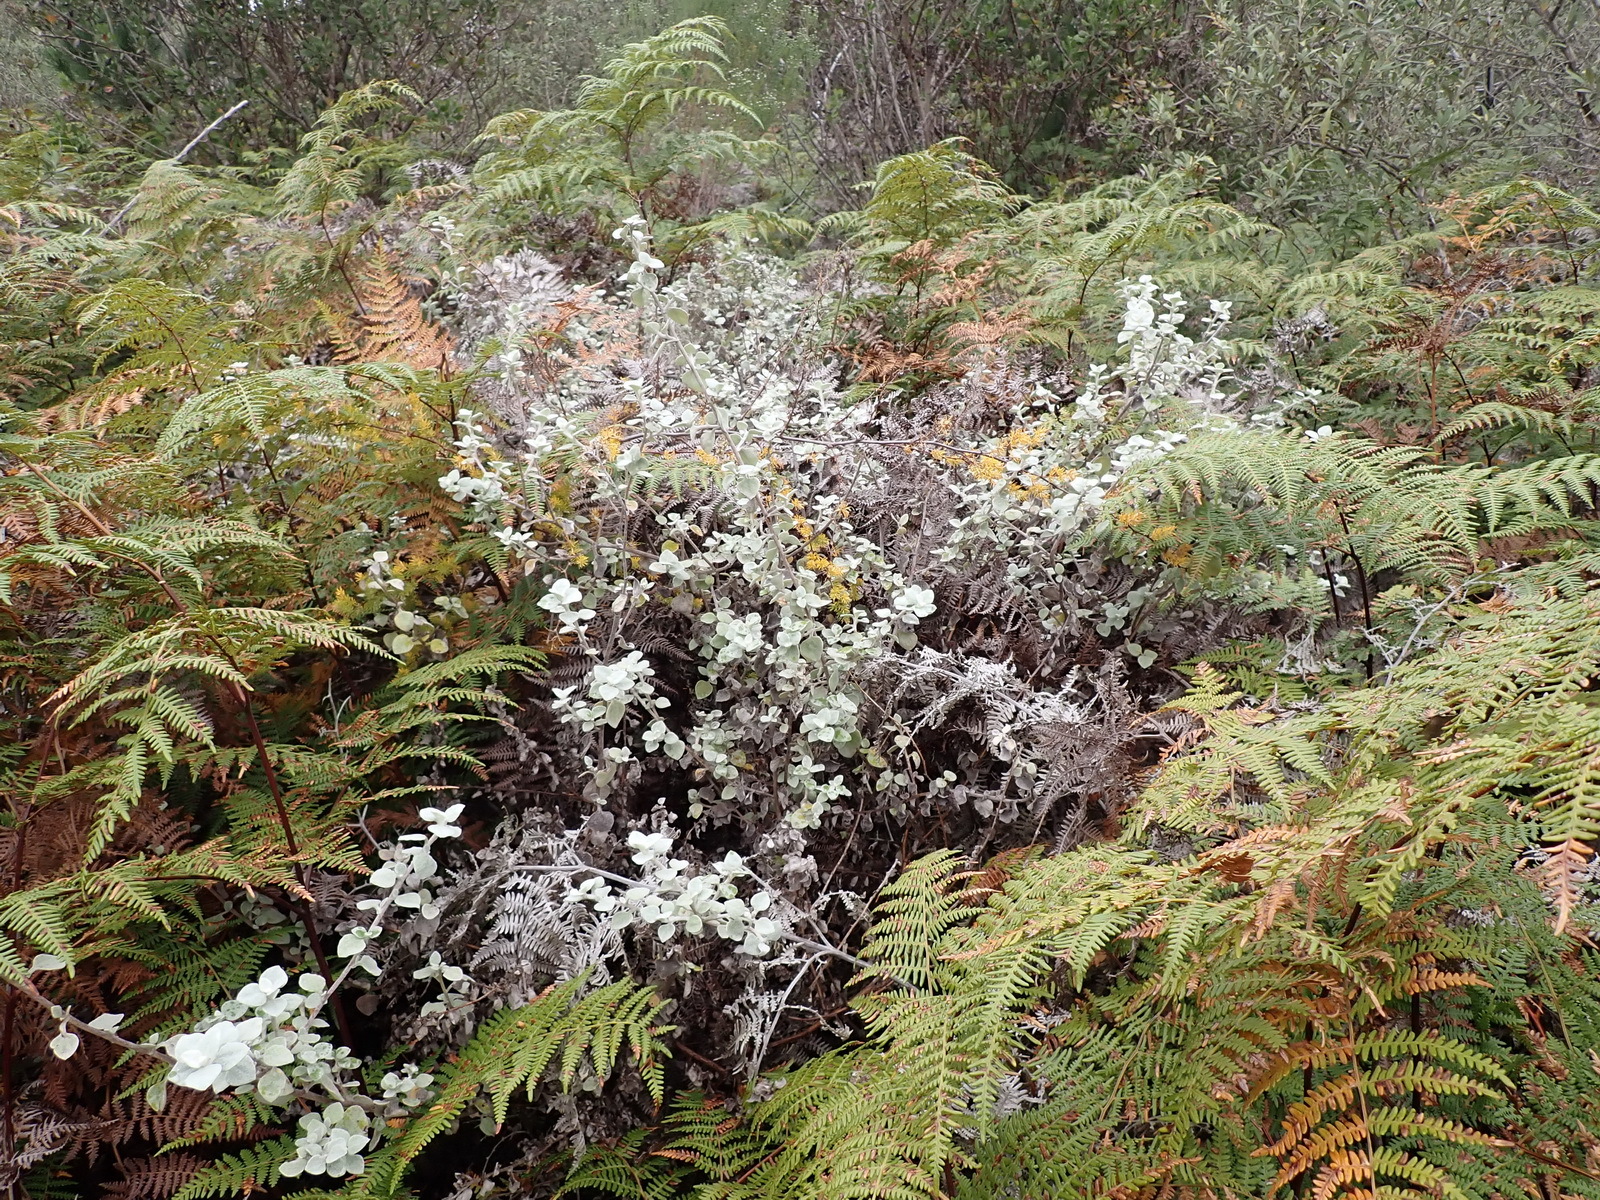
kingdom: Plantae
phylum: Tracheophyta
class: Magnoliopsida
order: Asterales
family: Asteraceae
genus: Helichrysum
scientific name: Helichrysum petiolare
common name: Licorice-plant
